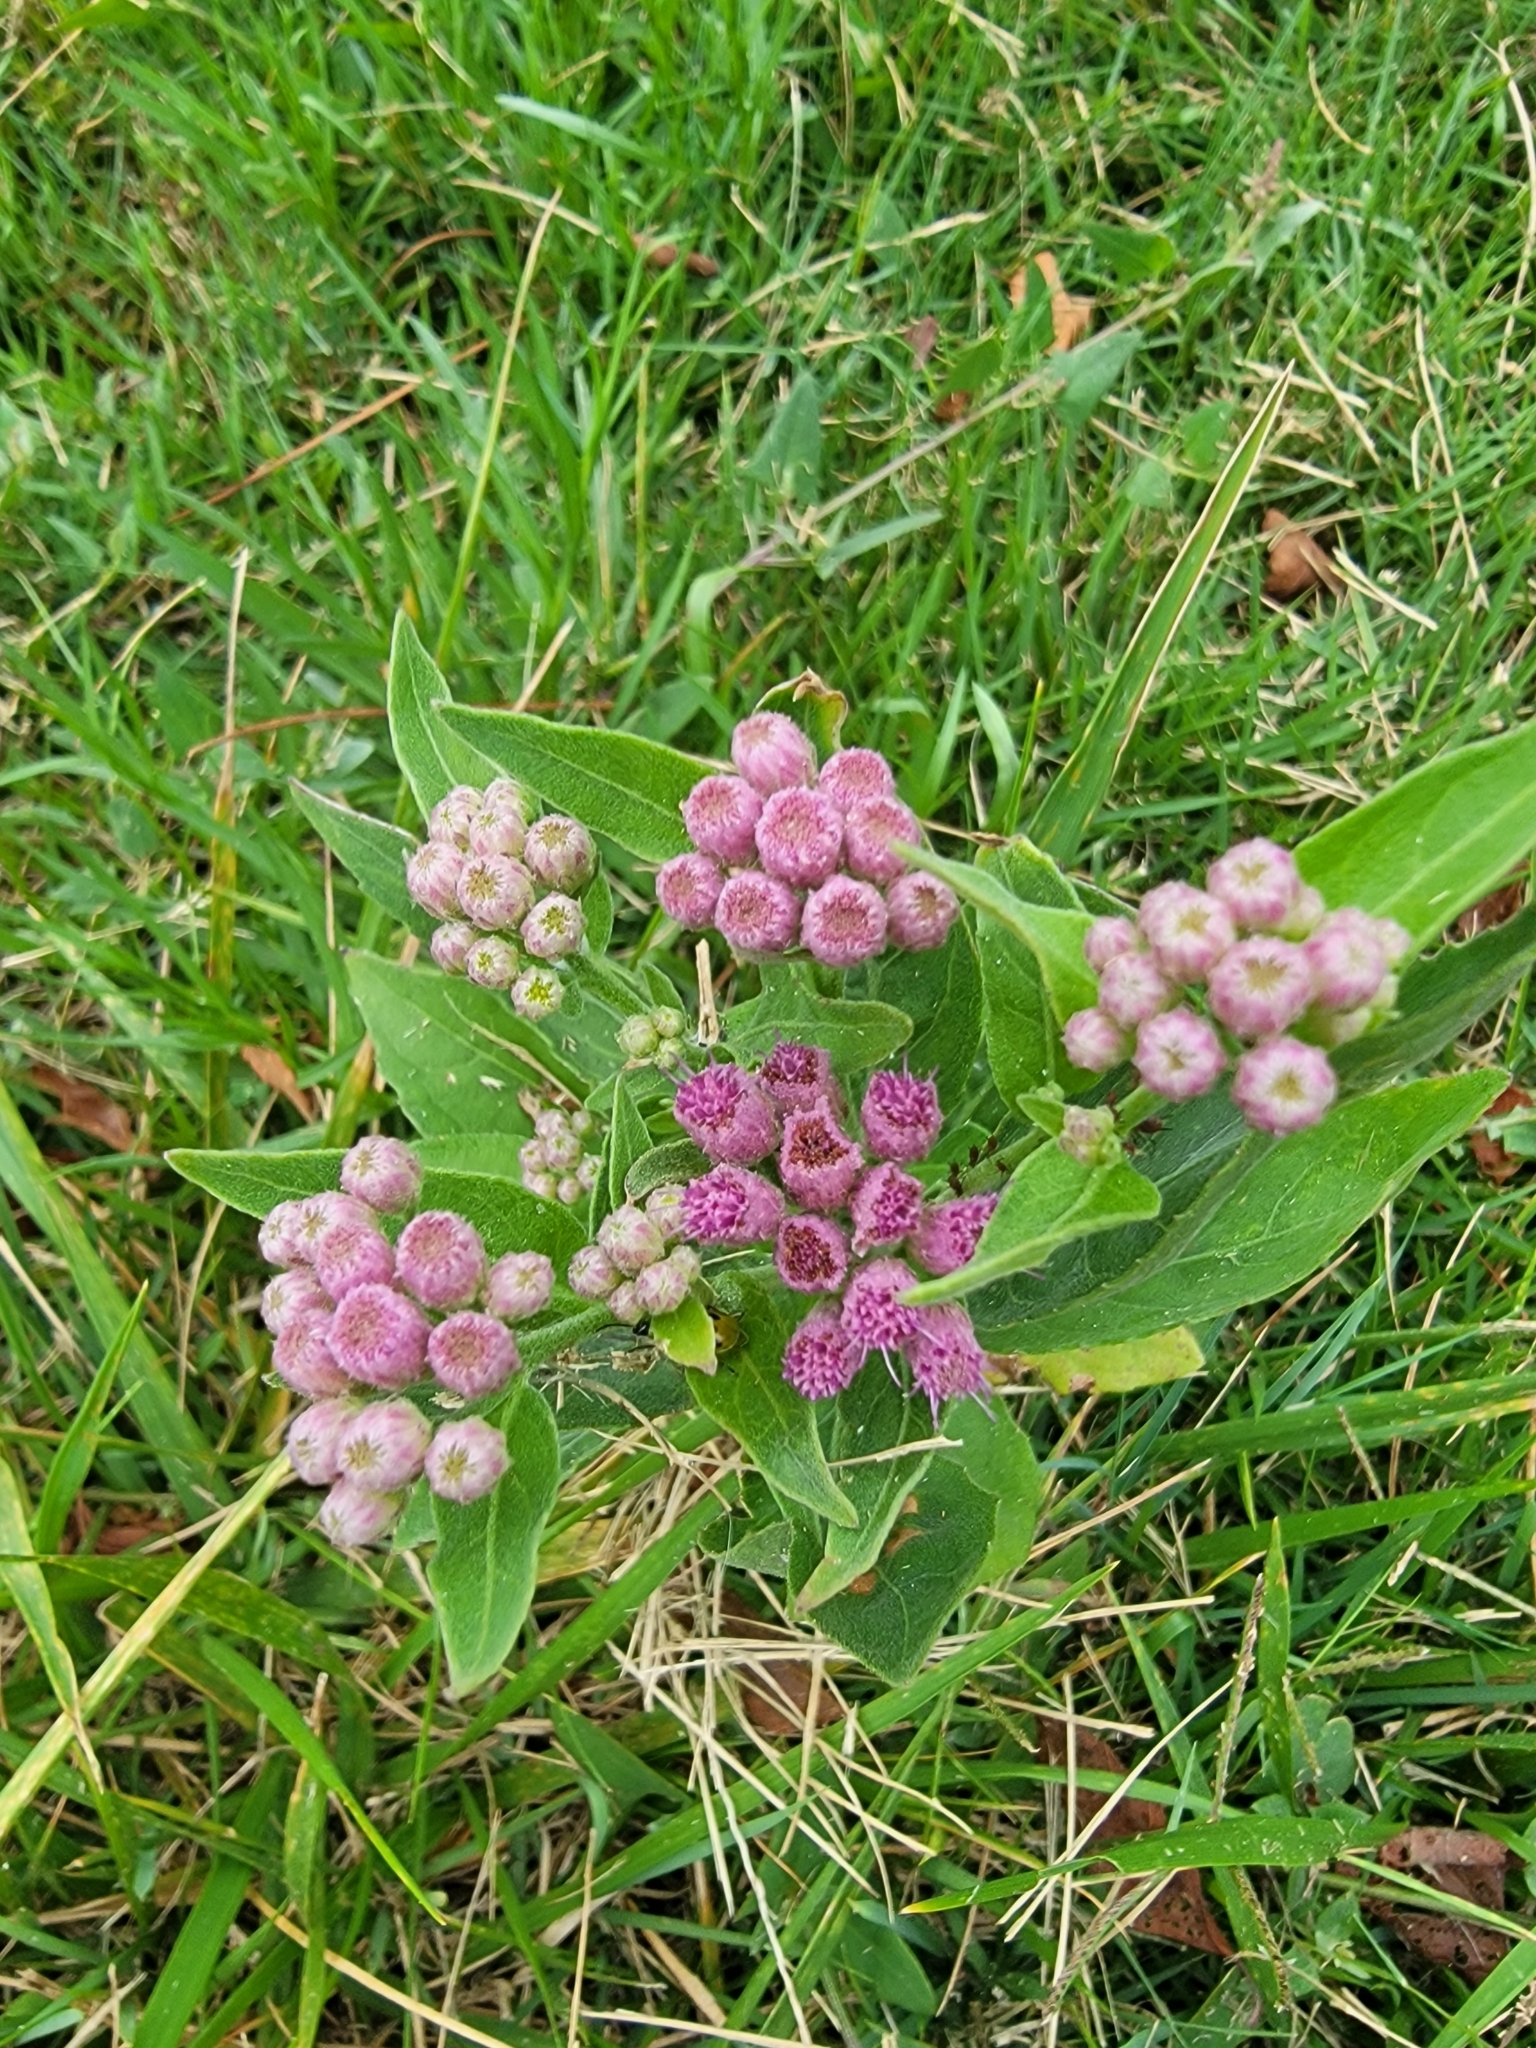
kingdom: Plantae
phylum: Tracheophyta
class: Magnoliopsida
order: Asterales
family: Asteraceae
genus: Pluchea
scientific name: Pluchea odorata
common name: Saltmarsh fleabane
